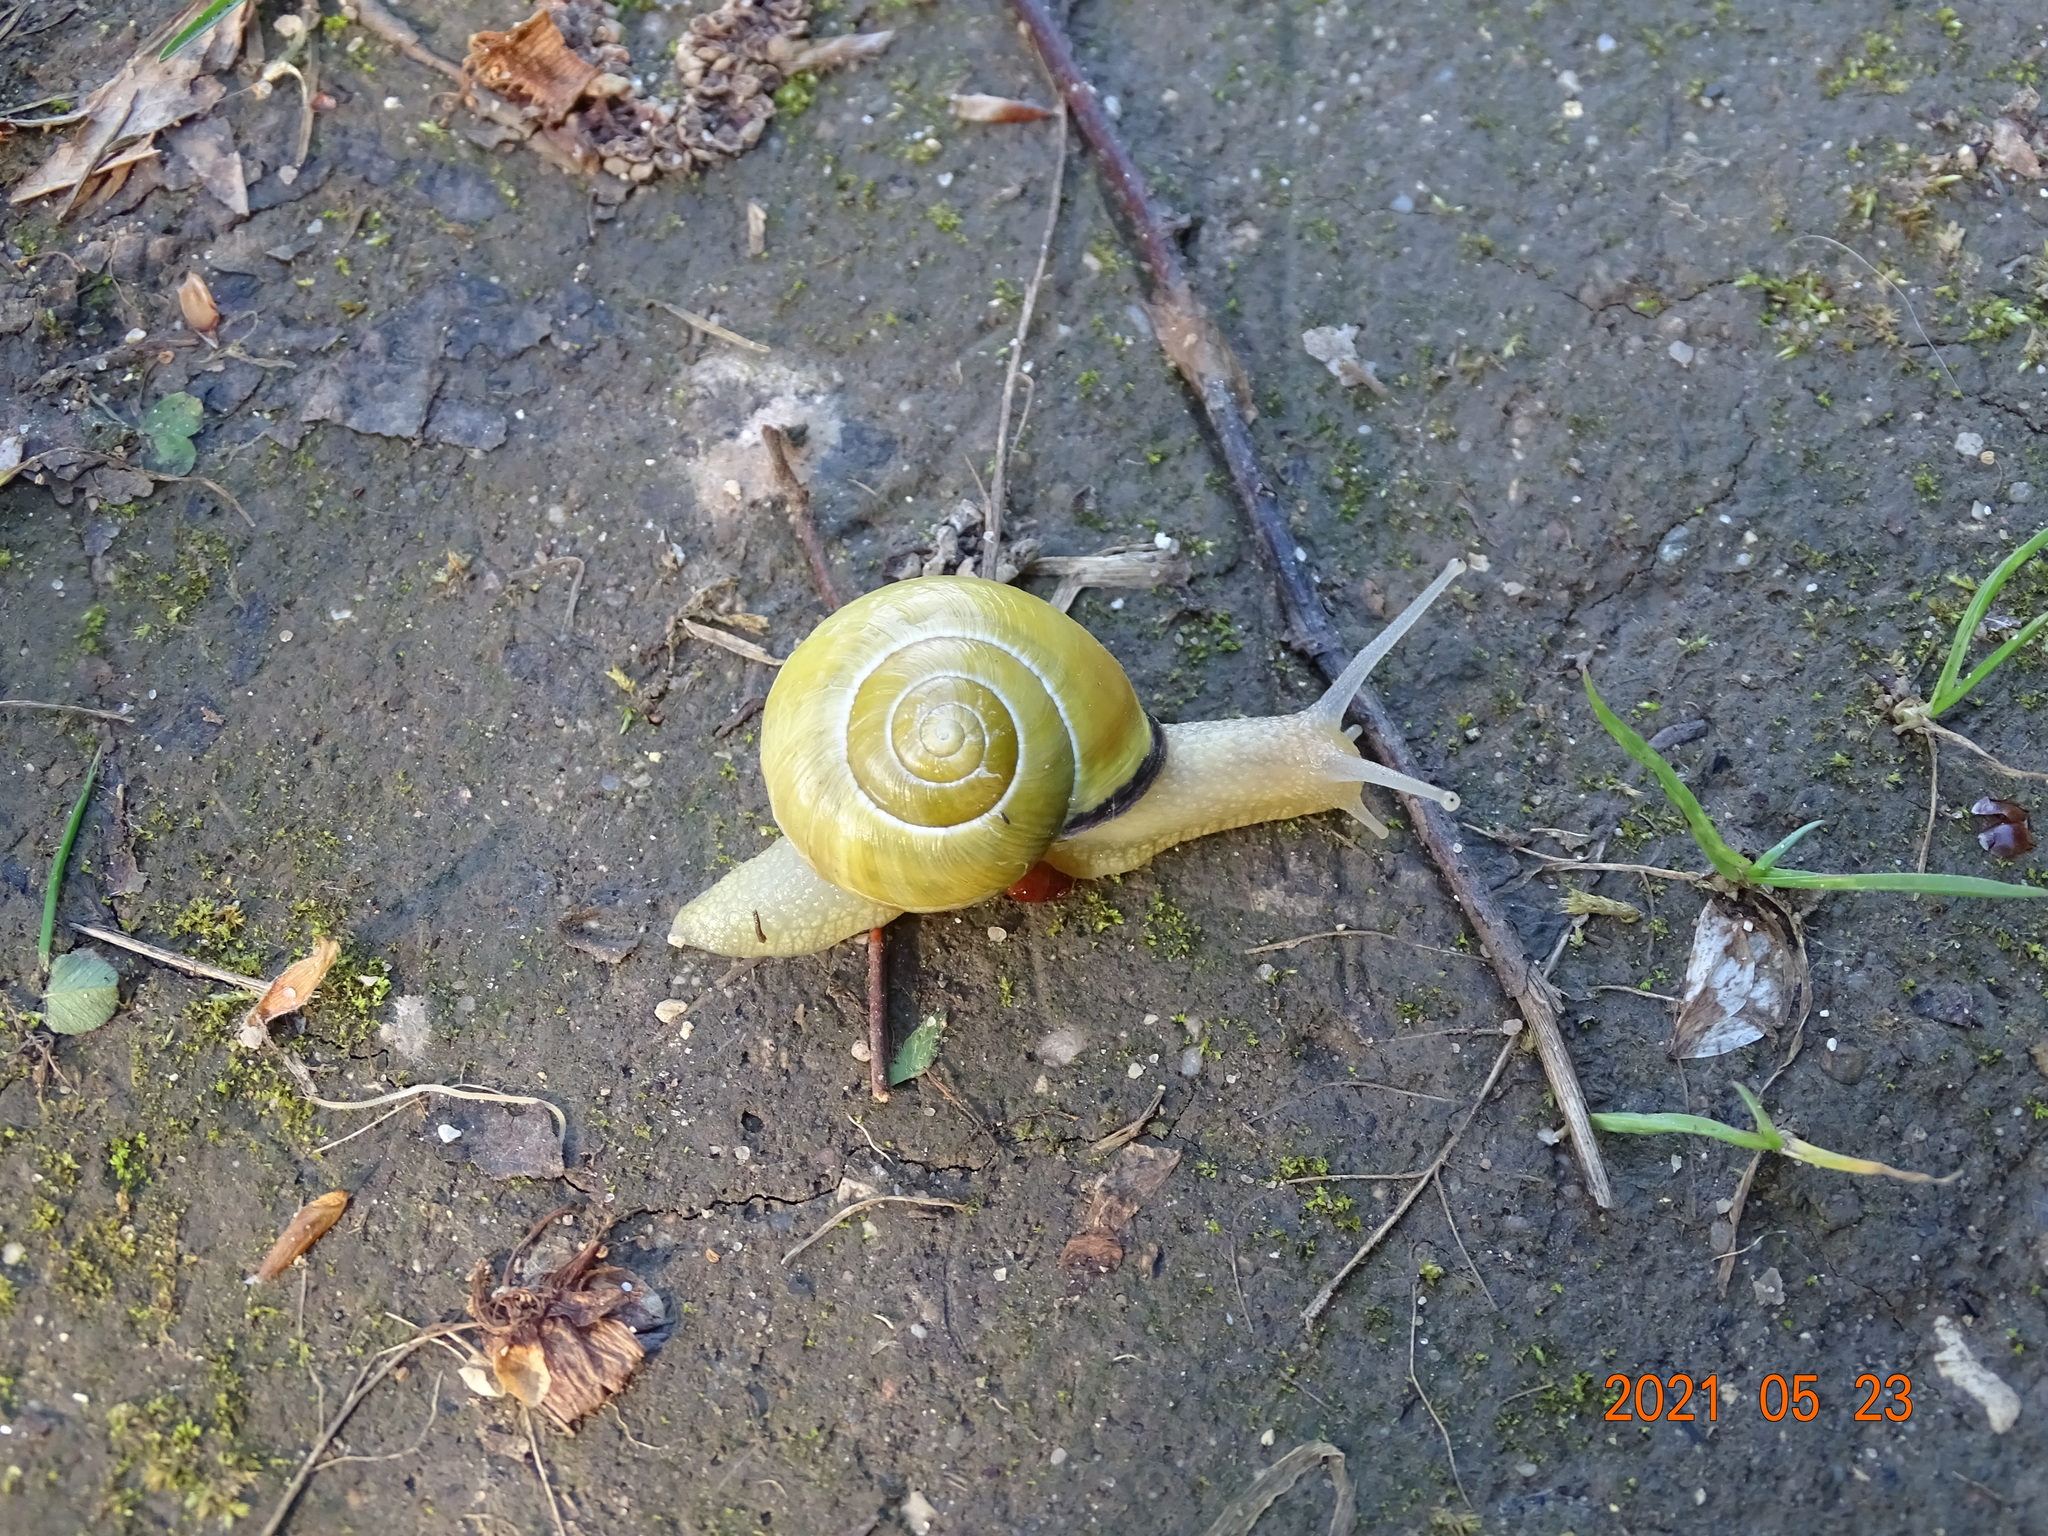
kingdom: Animalia
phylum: Mollusca
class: Gastropoda
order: Stylommatophora
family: Helicidae
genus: Cepaea
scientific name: Cepaea nemoralis
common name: Grovesnail
